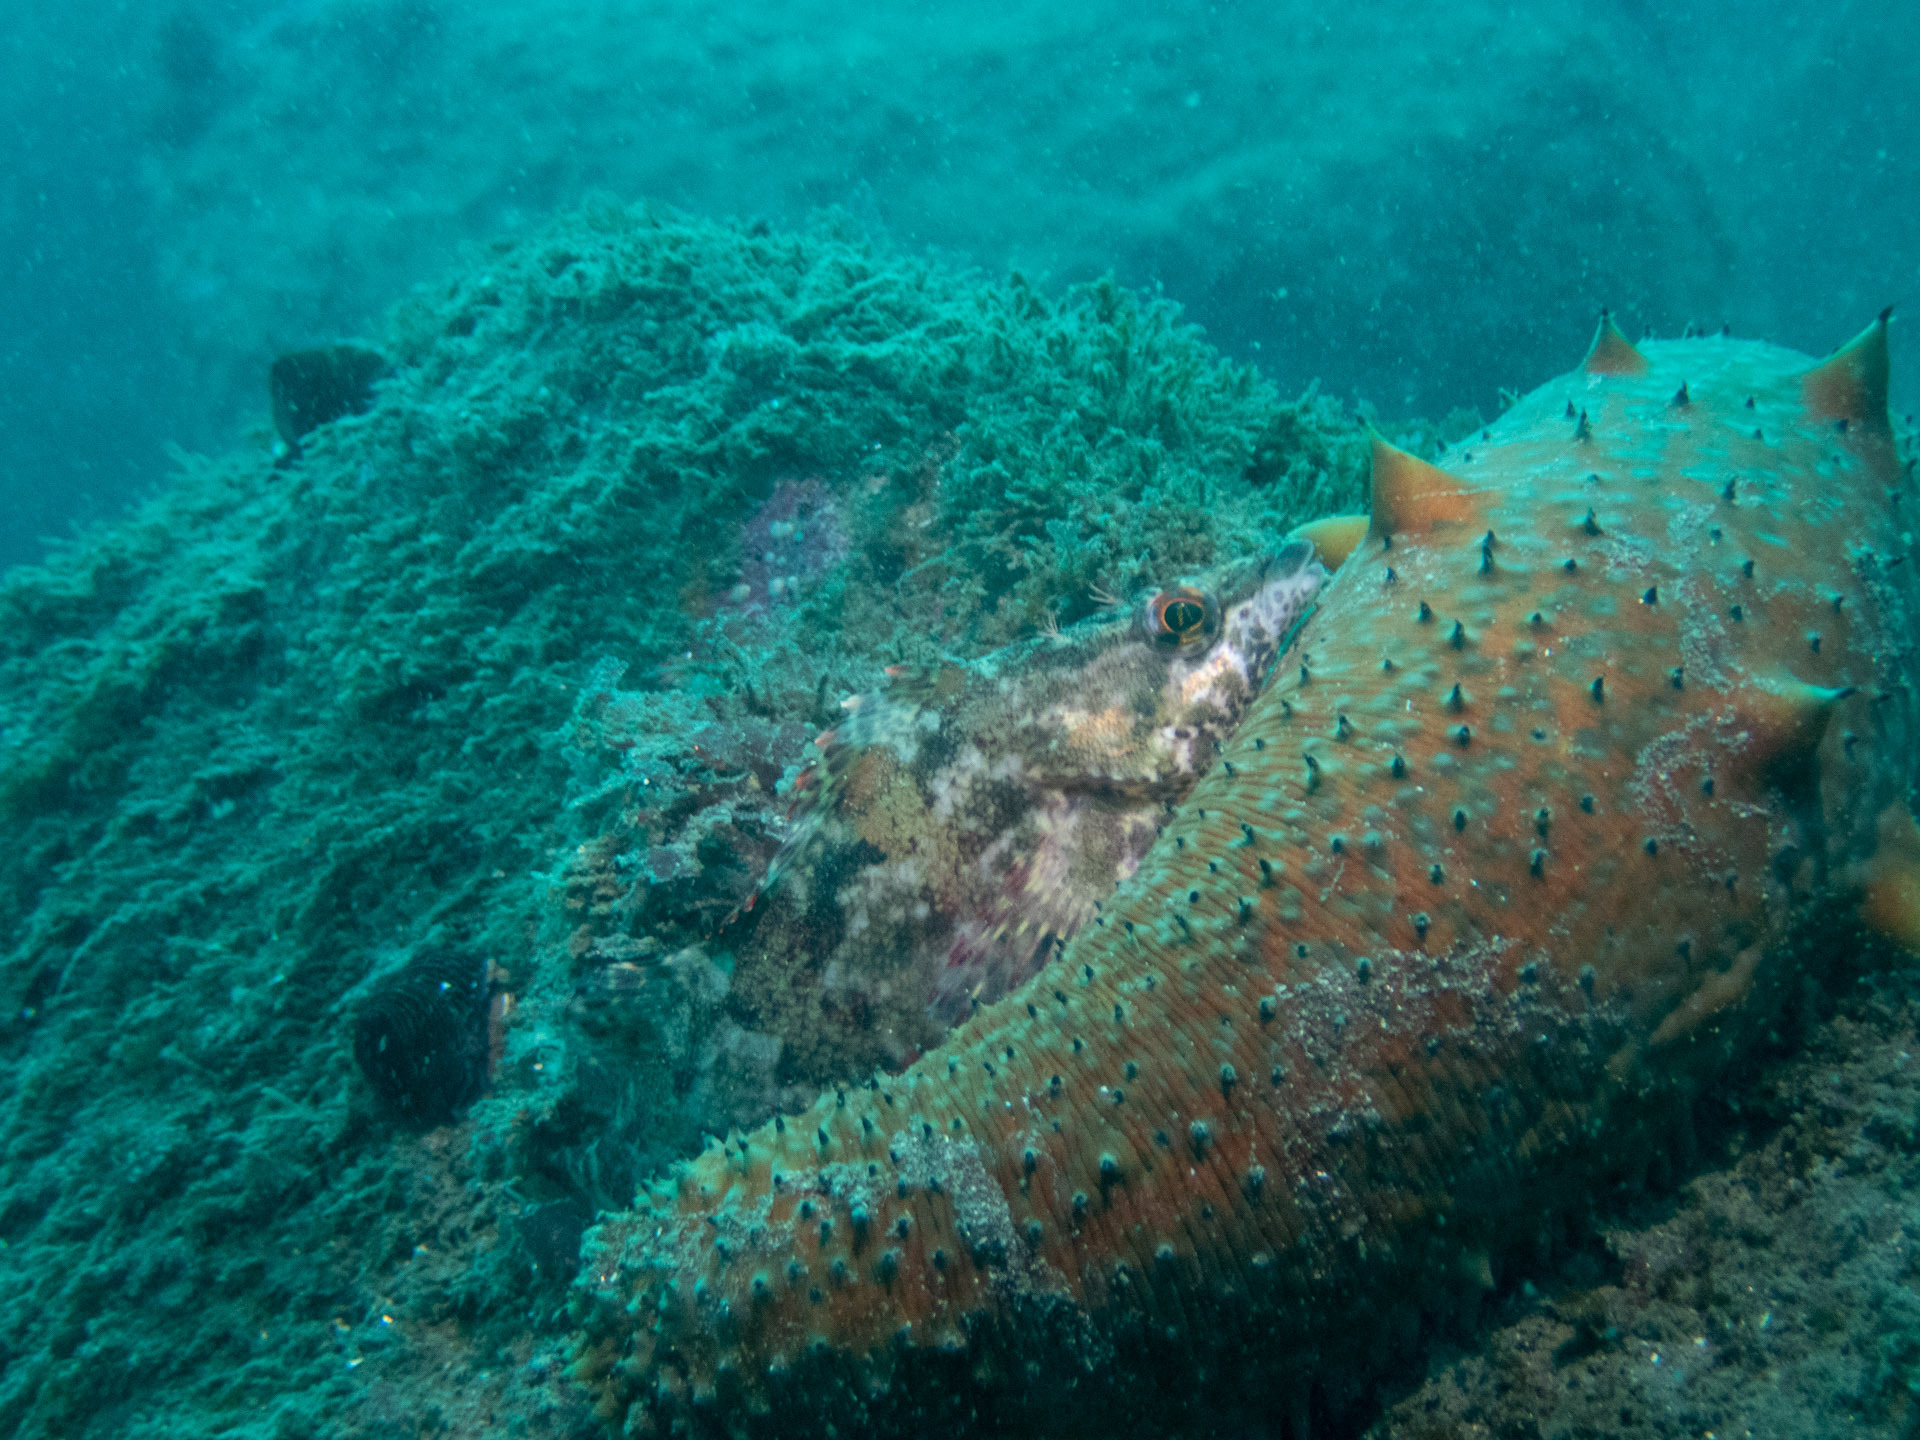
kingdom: Animalia
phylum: Echinodermata
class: Holothuroidea
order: Synallactida
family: Stichopodidae
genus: Apostichopus
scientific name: Apostichopus parvimensis
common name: Warty sea cucumber
